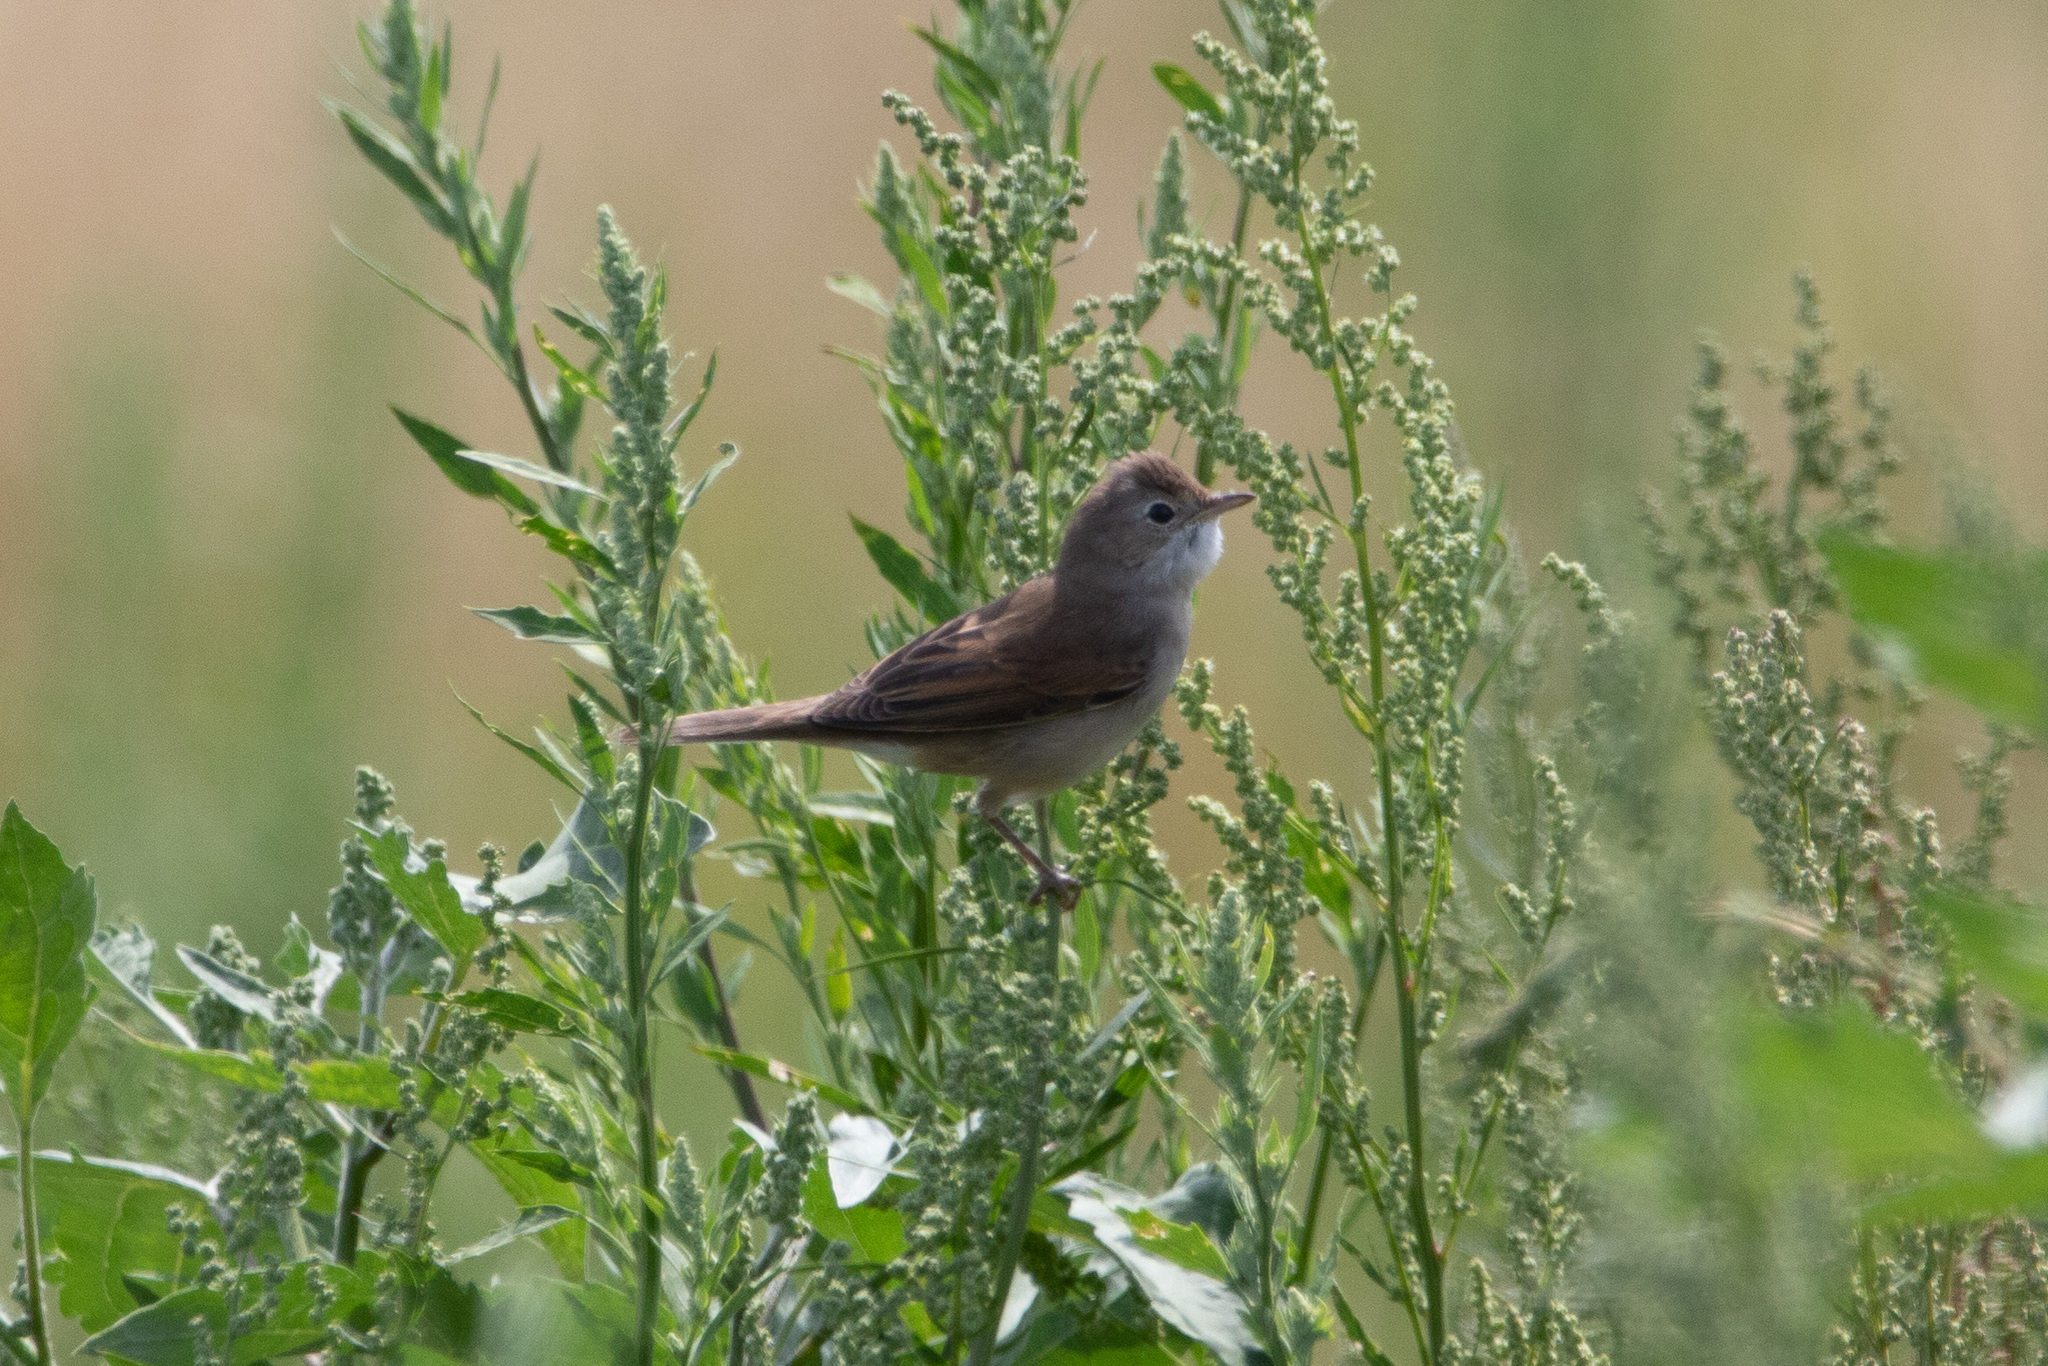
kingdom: Animalia
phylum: Chordata
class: Aves
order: Passeriformes
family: Sylviidae
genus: Sylvia
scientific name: Sylvia communis
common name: Common whitethroat
